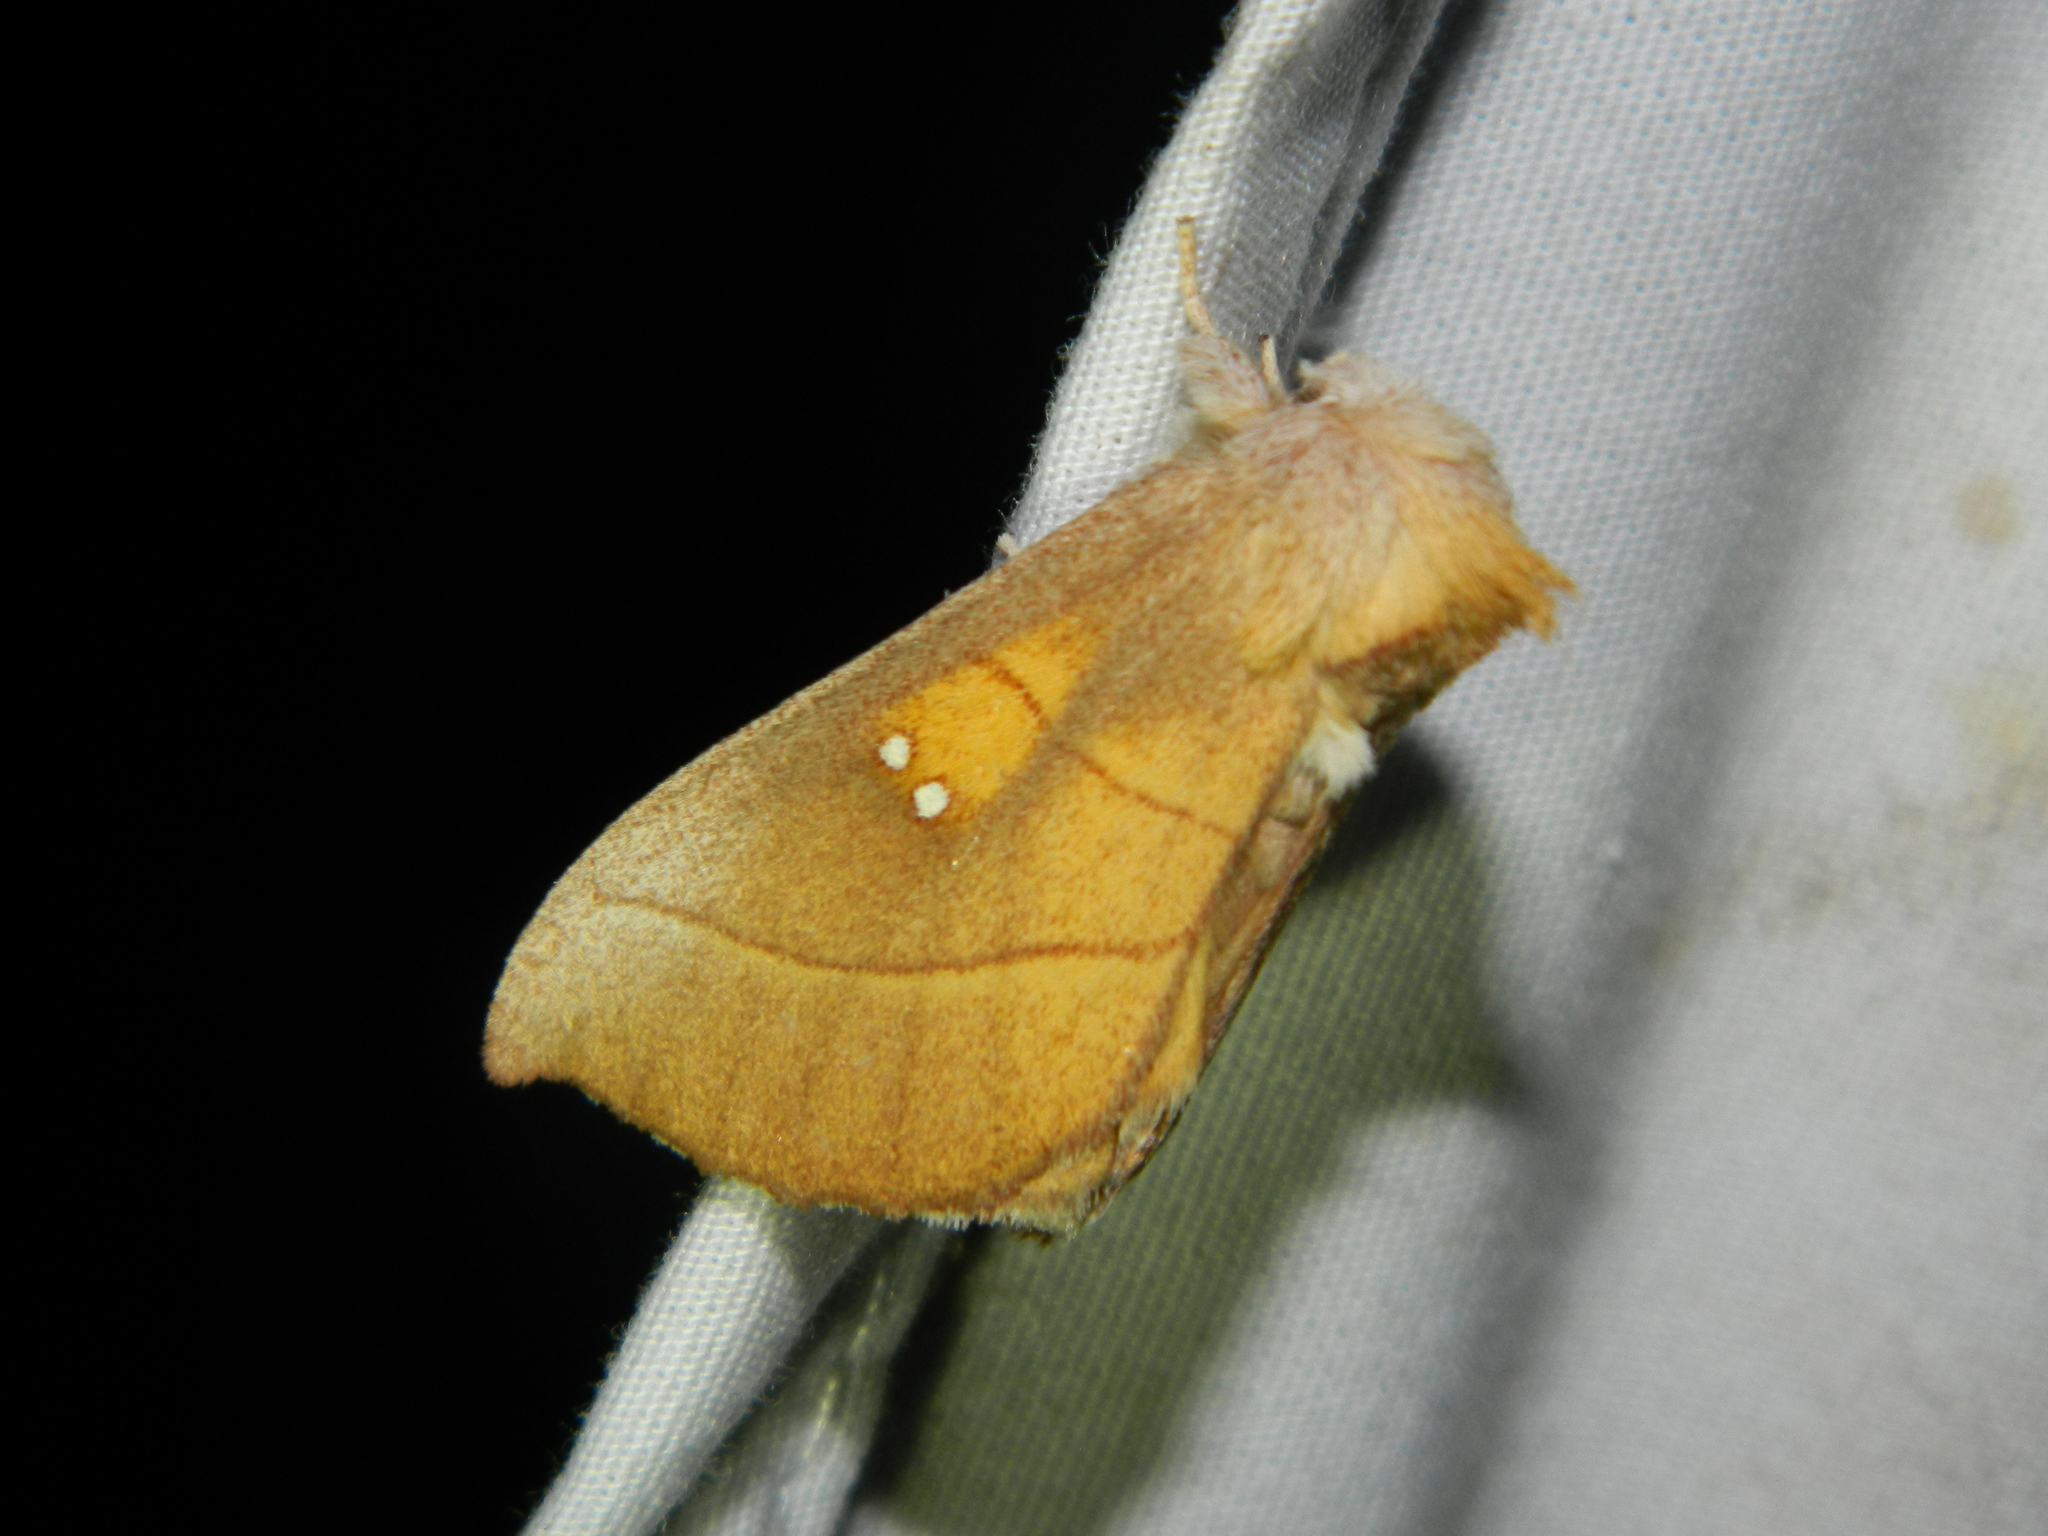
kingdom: Animalia
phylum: Arthropoda
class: Insecta
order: Lepidoptera
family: Notodontidae
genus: Nadata
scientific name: Nadata gibbosa
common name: White-dotted prominent
